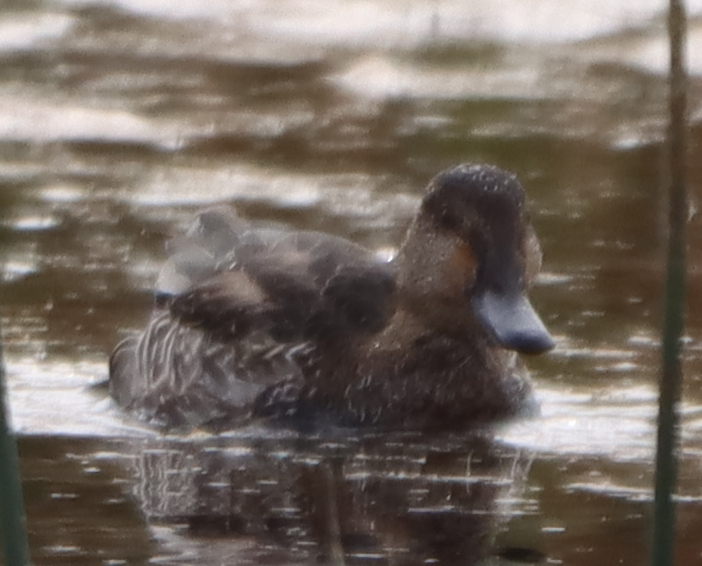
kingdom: Animalia
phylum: Chordata
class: Aves
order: Anseriformes
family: Anatidae
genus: Anas
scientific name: Anas crecca
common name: Eurasian teal
